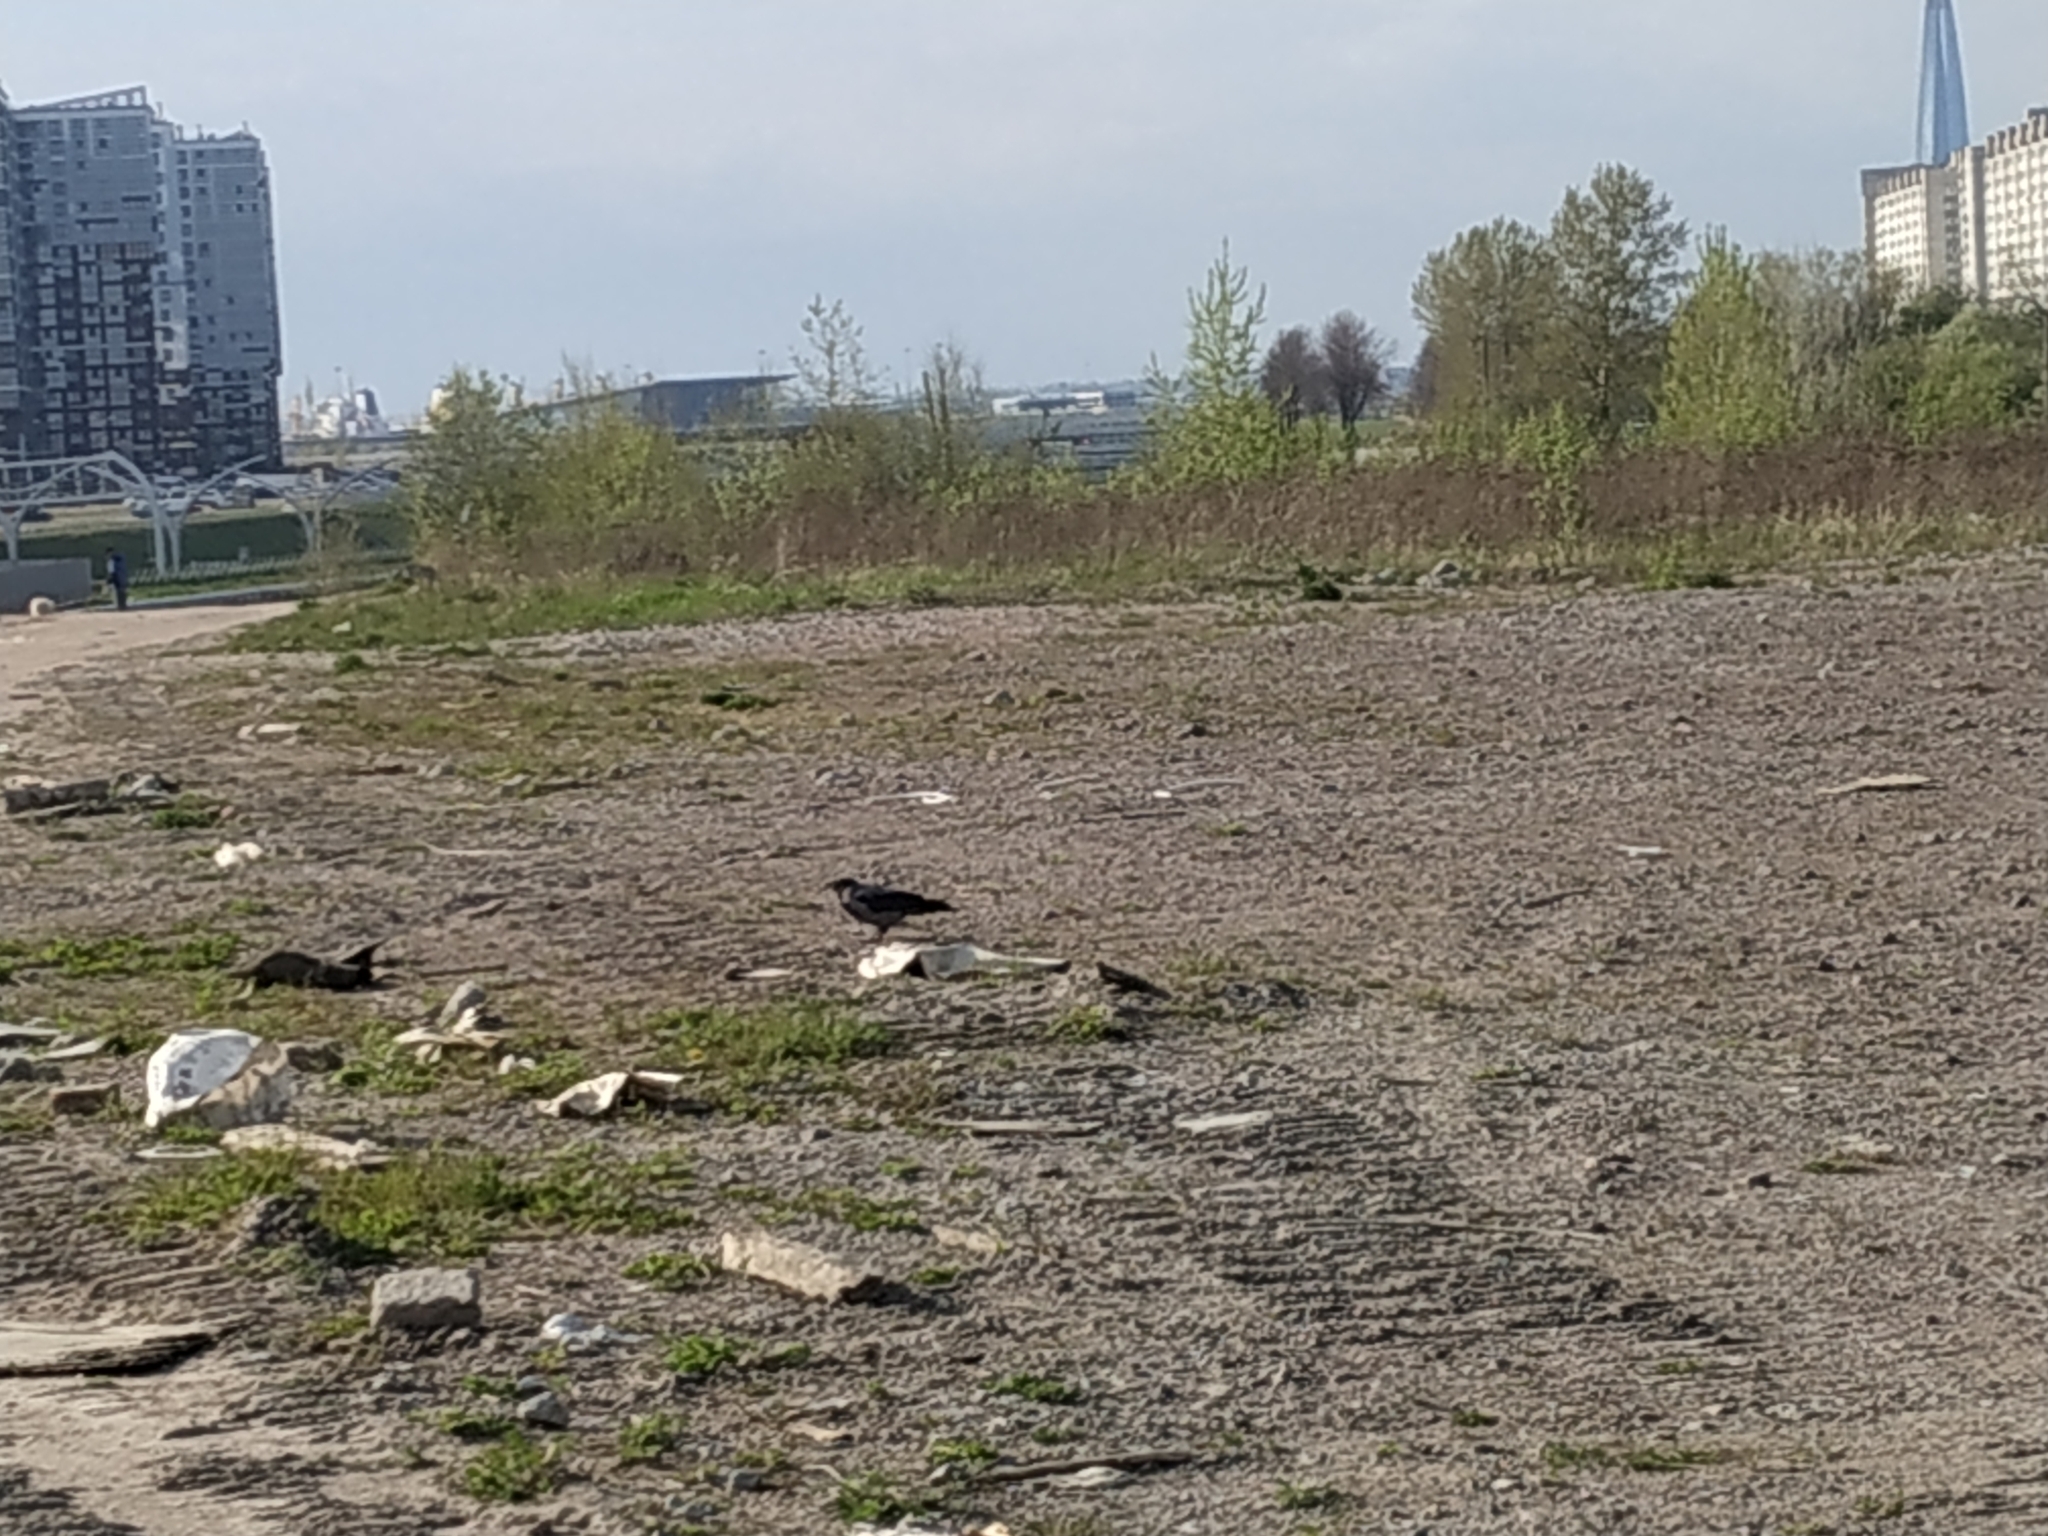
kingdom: Animalia
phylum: Chordata
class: Aves
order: Passeriformes
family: Corvidae
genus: Corvus
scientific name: Corvus cornix
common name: Hooded crow
